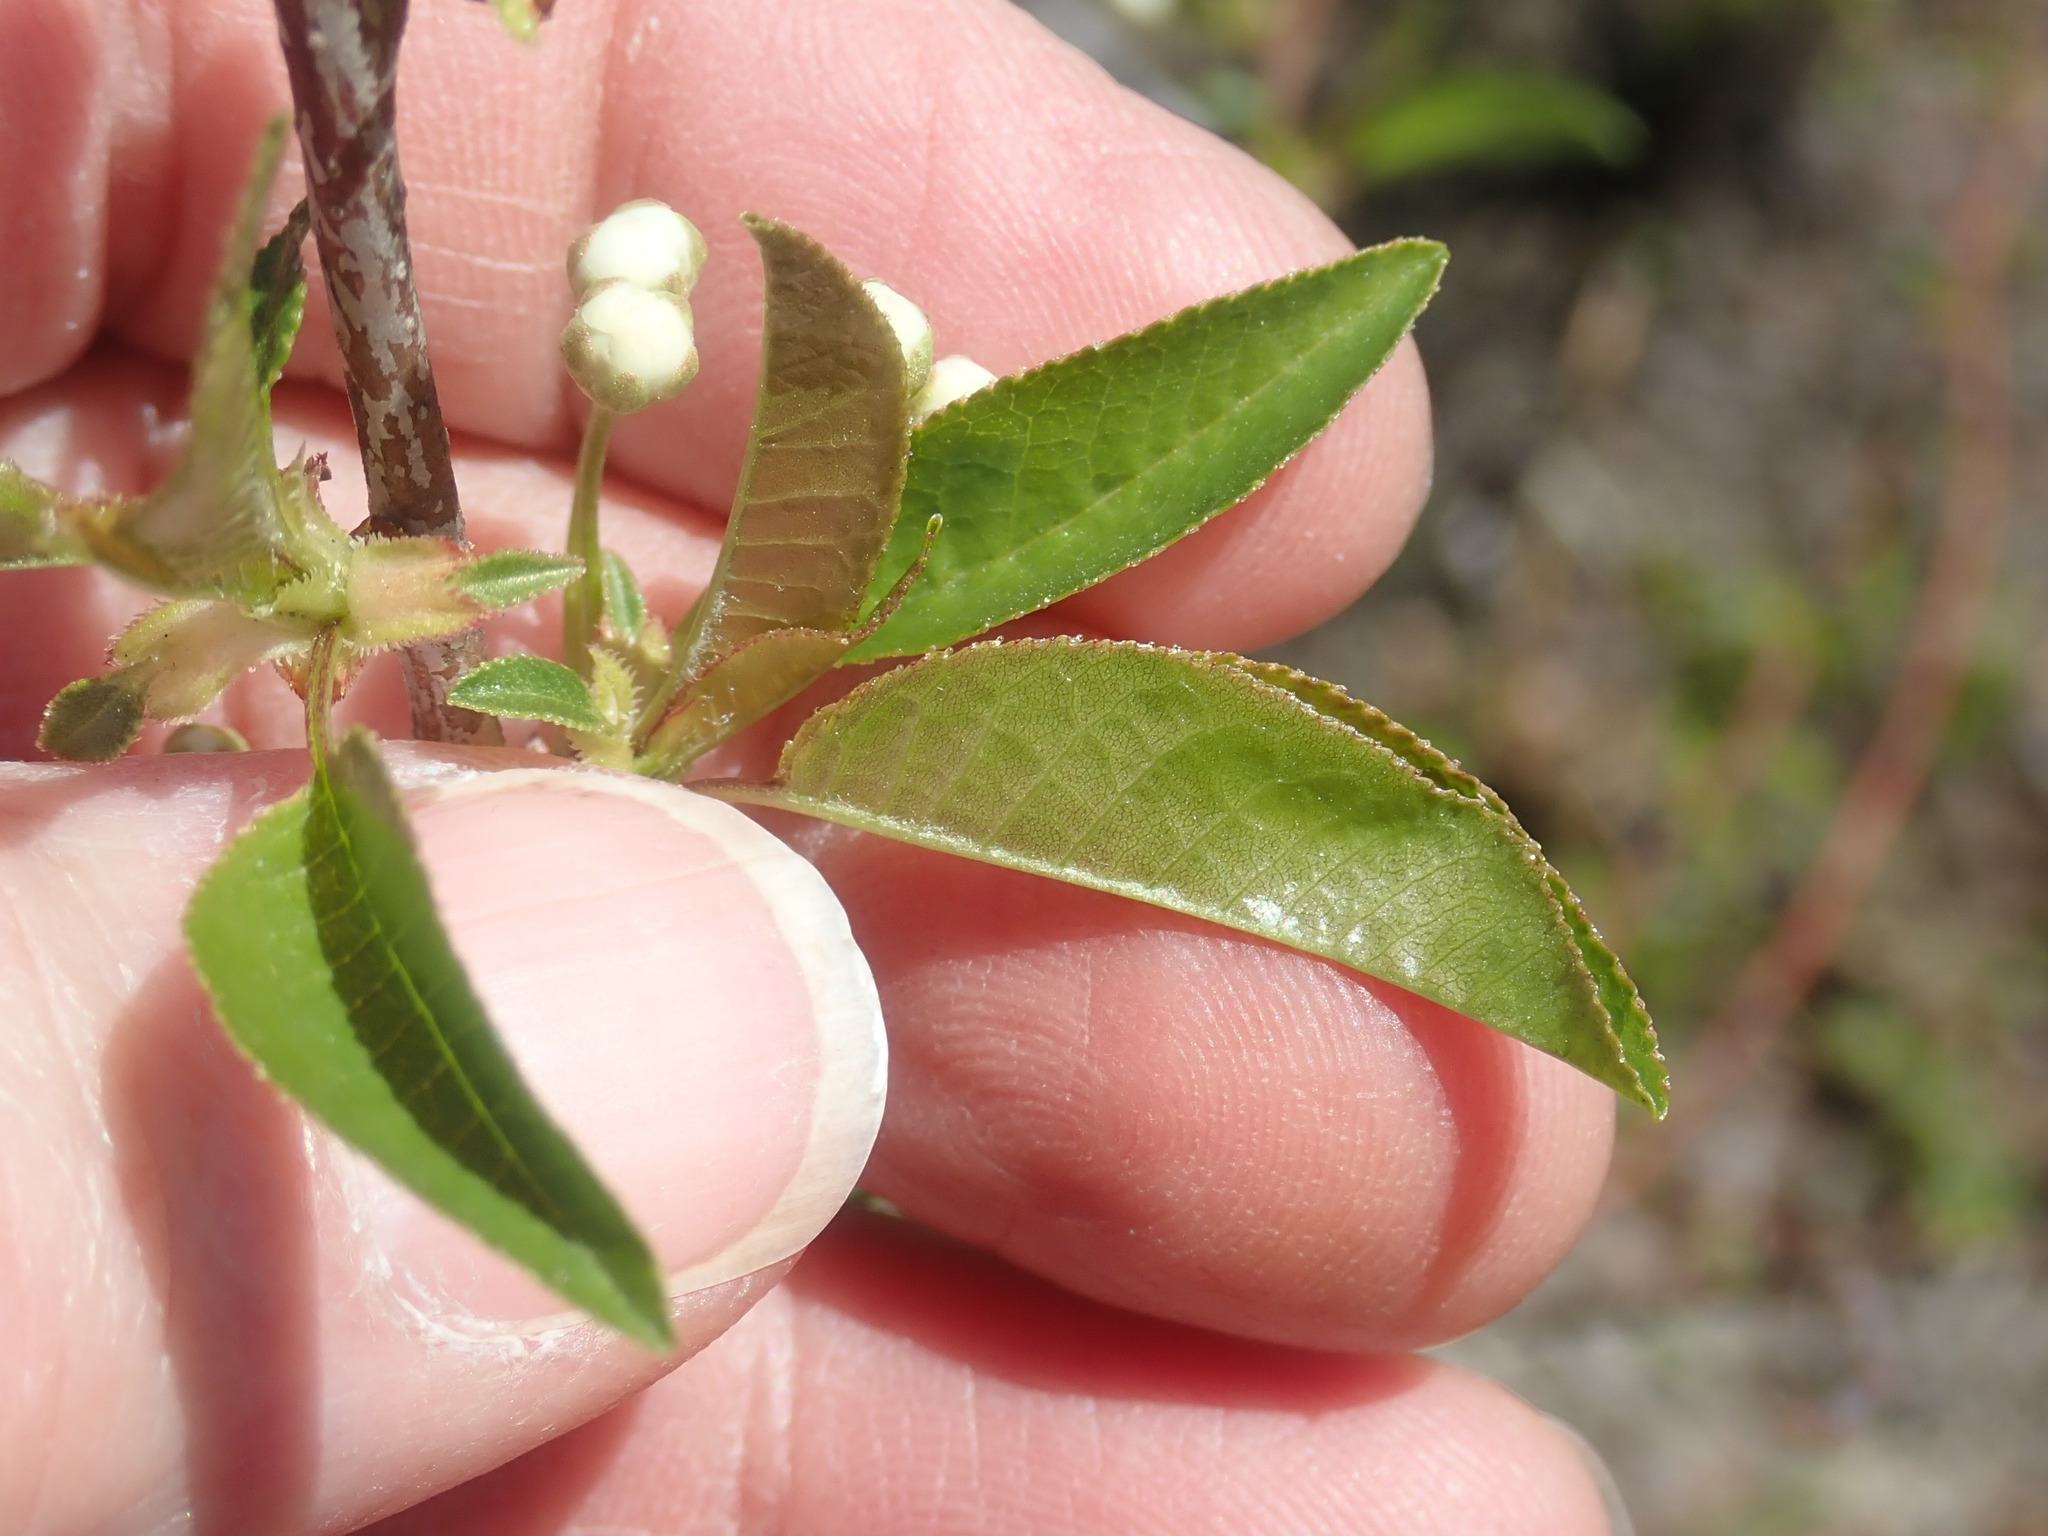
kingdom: Plantae
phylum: Tracheophyta
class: Magnoliopsida
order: Rosales
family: Rosaceae
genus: Prunus
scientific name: Prunus pensylvanica
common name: Pin cherry
